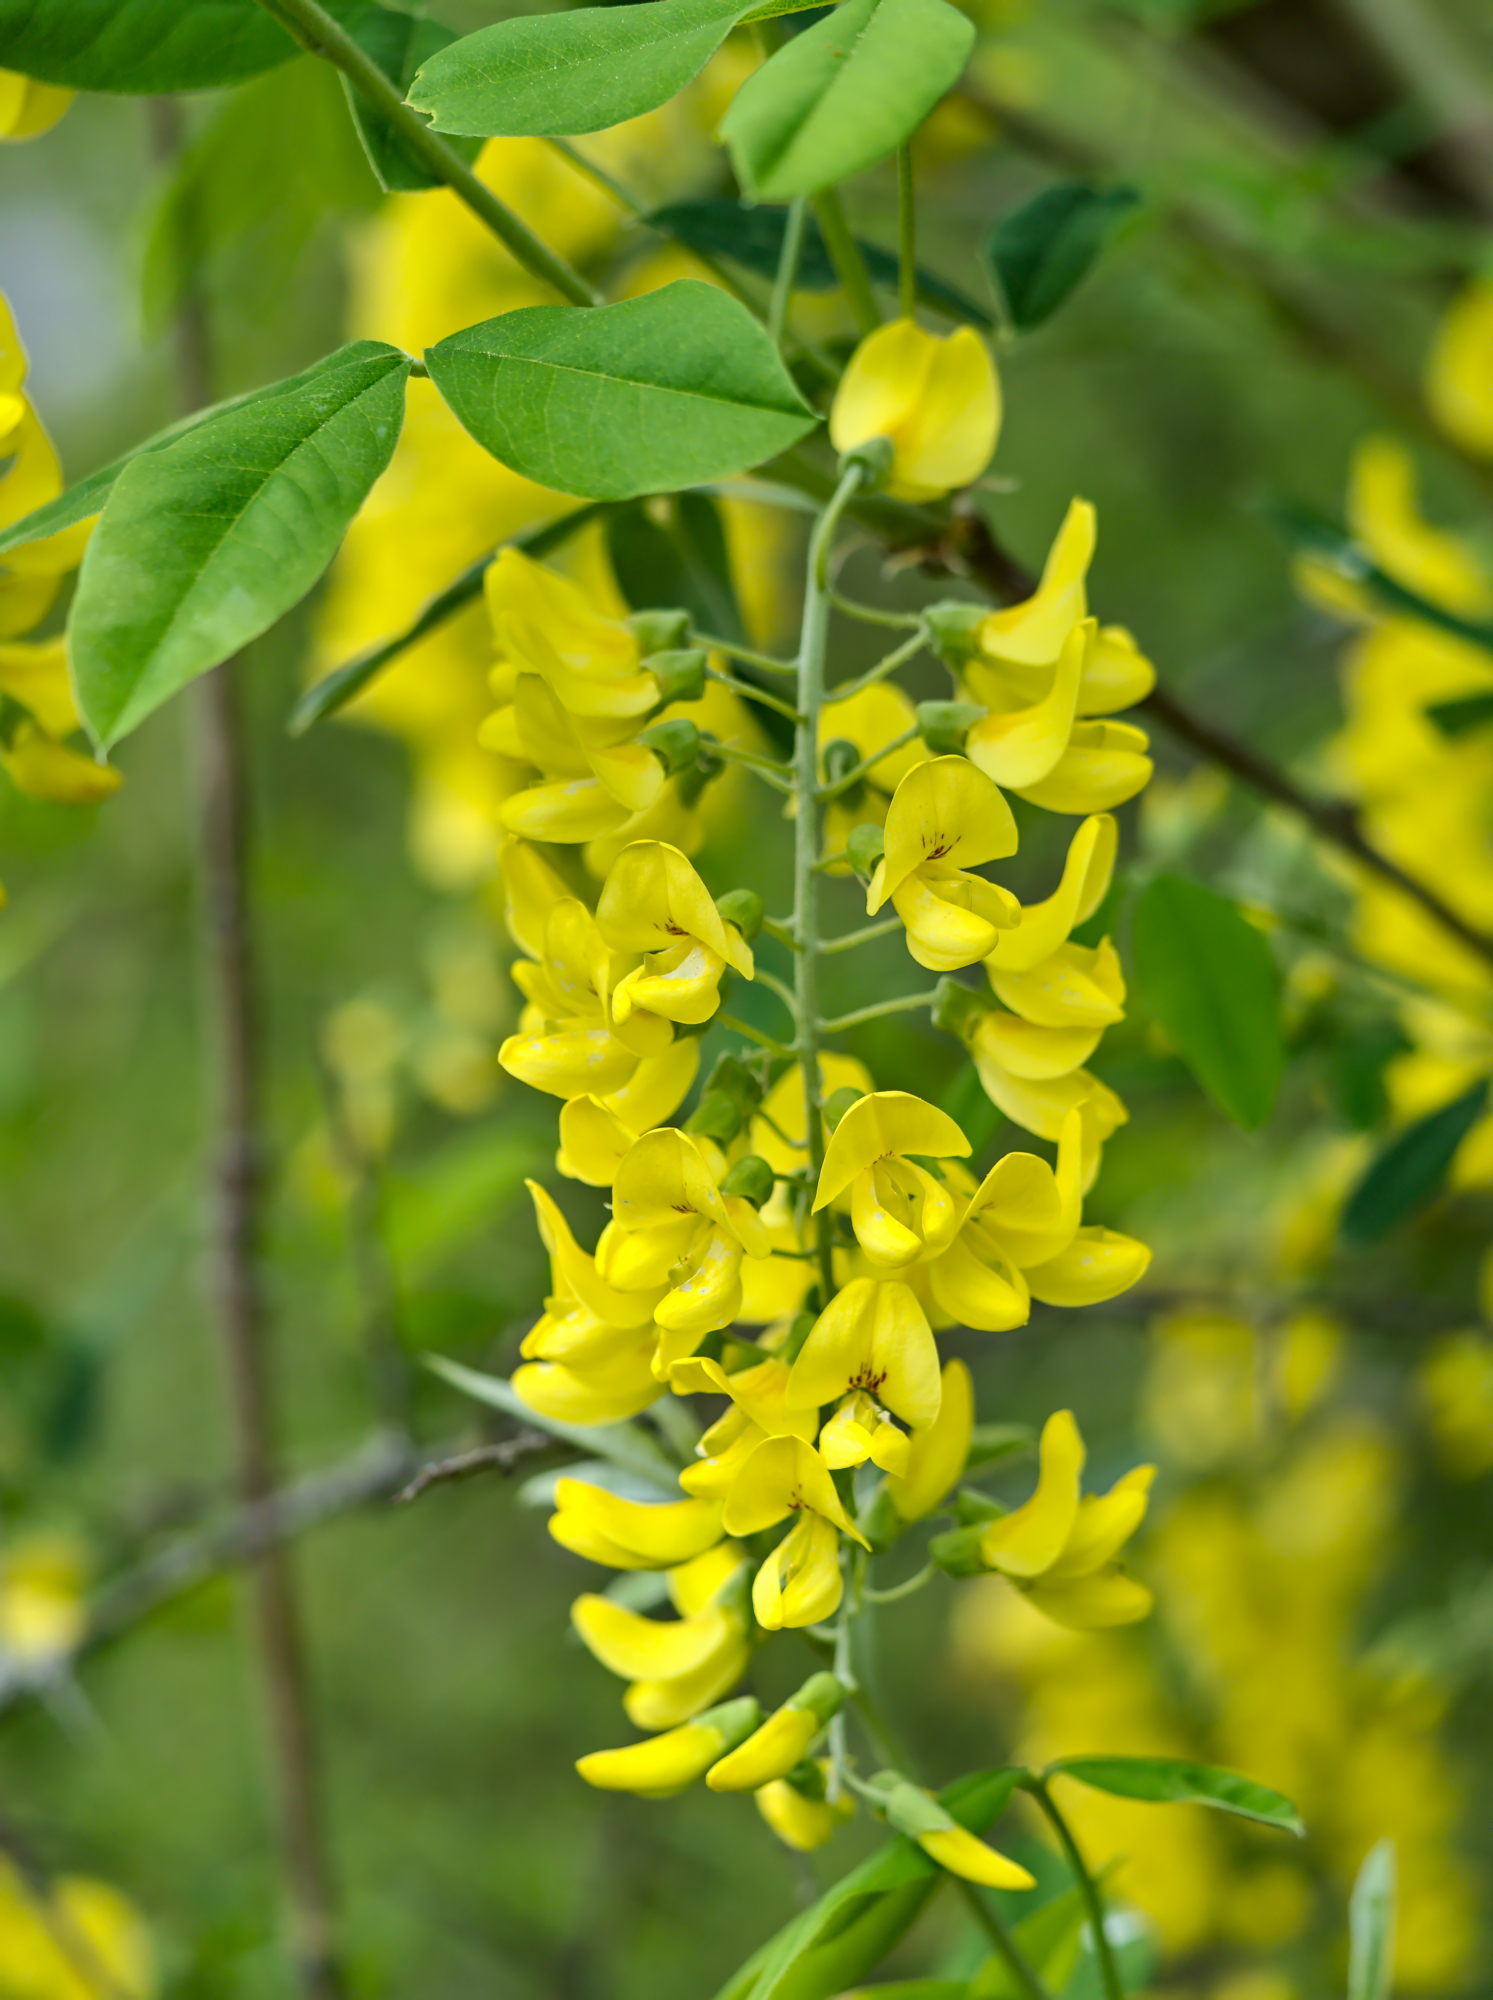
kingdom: Plantae
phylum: Tracheophyta
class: Magnoliopsida
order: Fabales
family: Fabaceae
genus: Laburnum
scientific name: Laburnum anagyroides
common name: Laburnum
